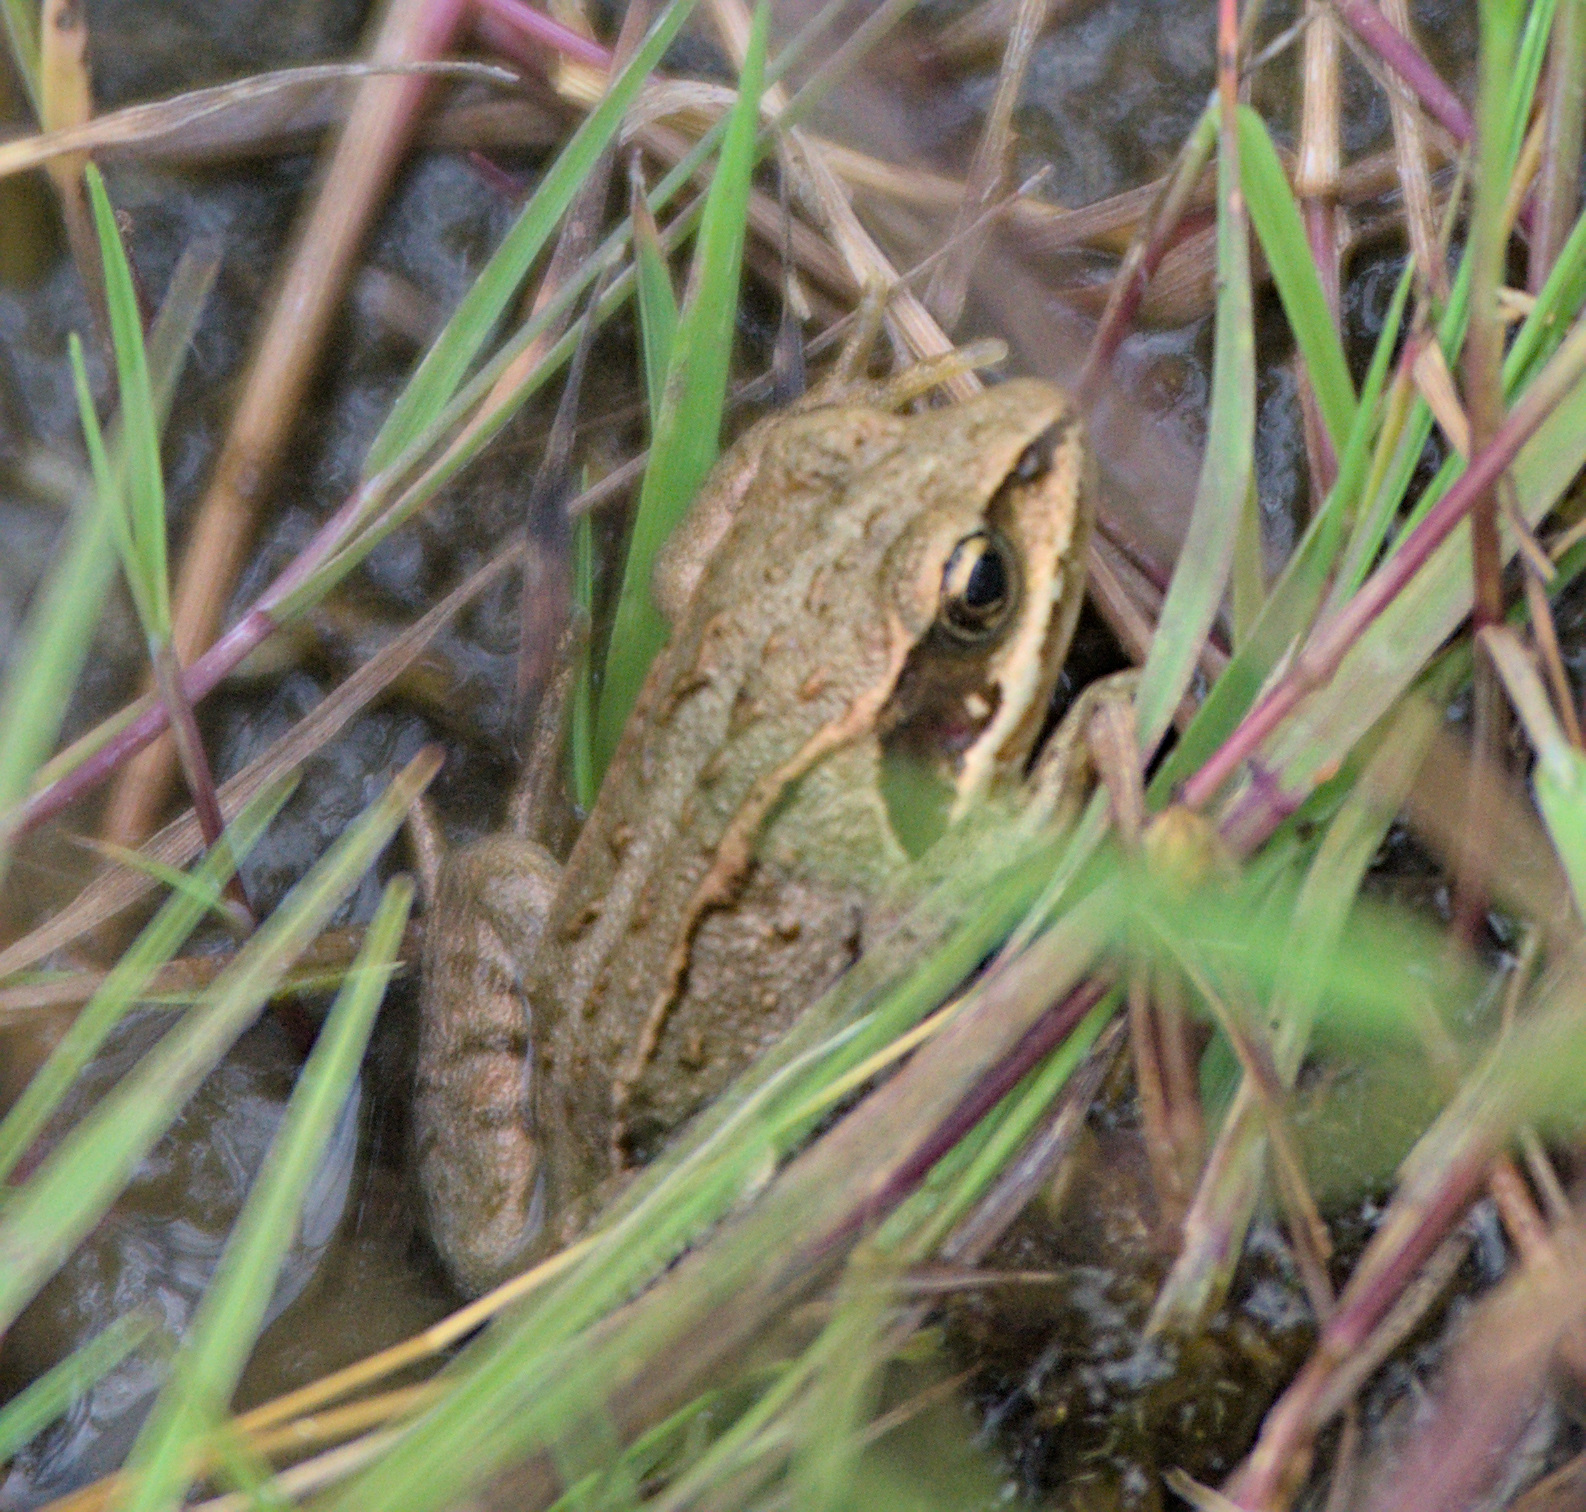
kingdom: Animalia
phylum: Chordata
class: Amphibia
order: Anura
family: Ranidae
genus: Rana
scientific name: Rana arvalis
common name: Moor frog
